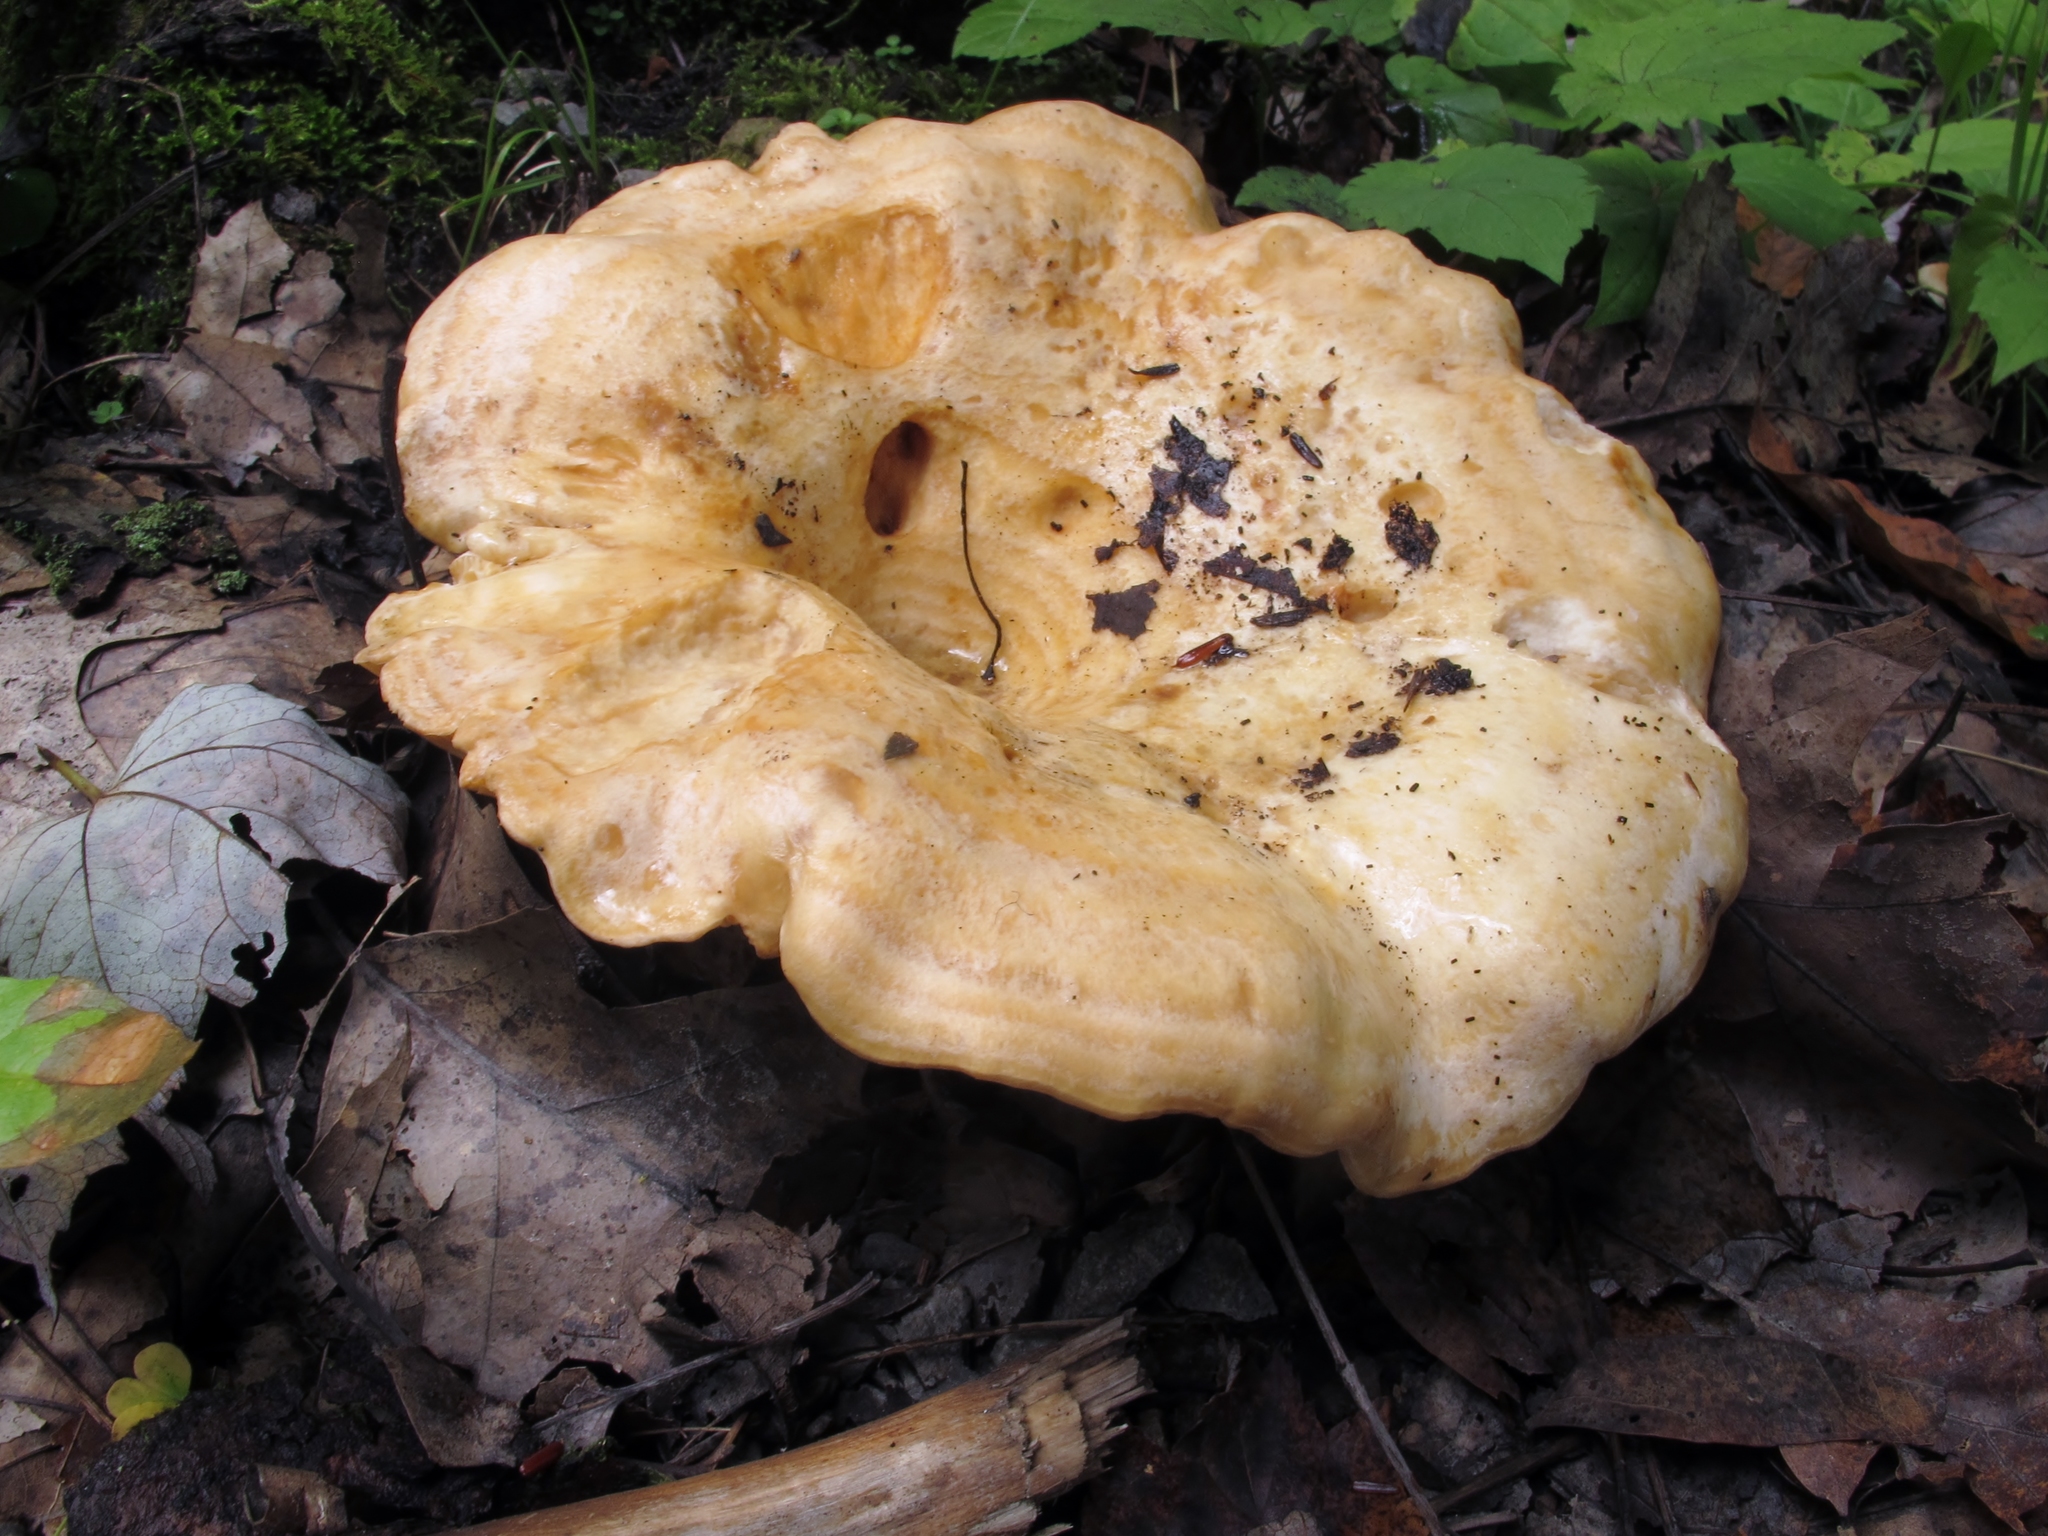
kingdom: Fungi
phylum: Basidiomycota
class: Agaricomycetes
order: Russulales
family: Russulaceae
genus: Lactarius
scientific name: Lactarius psammicola
